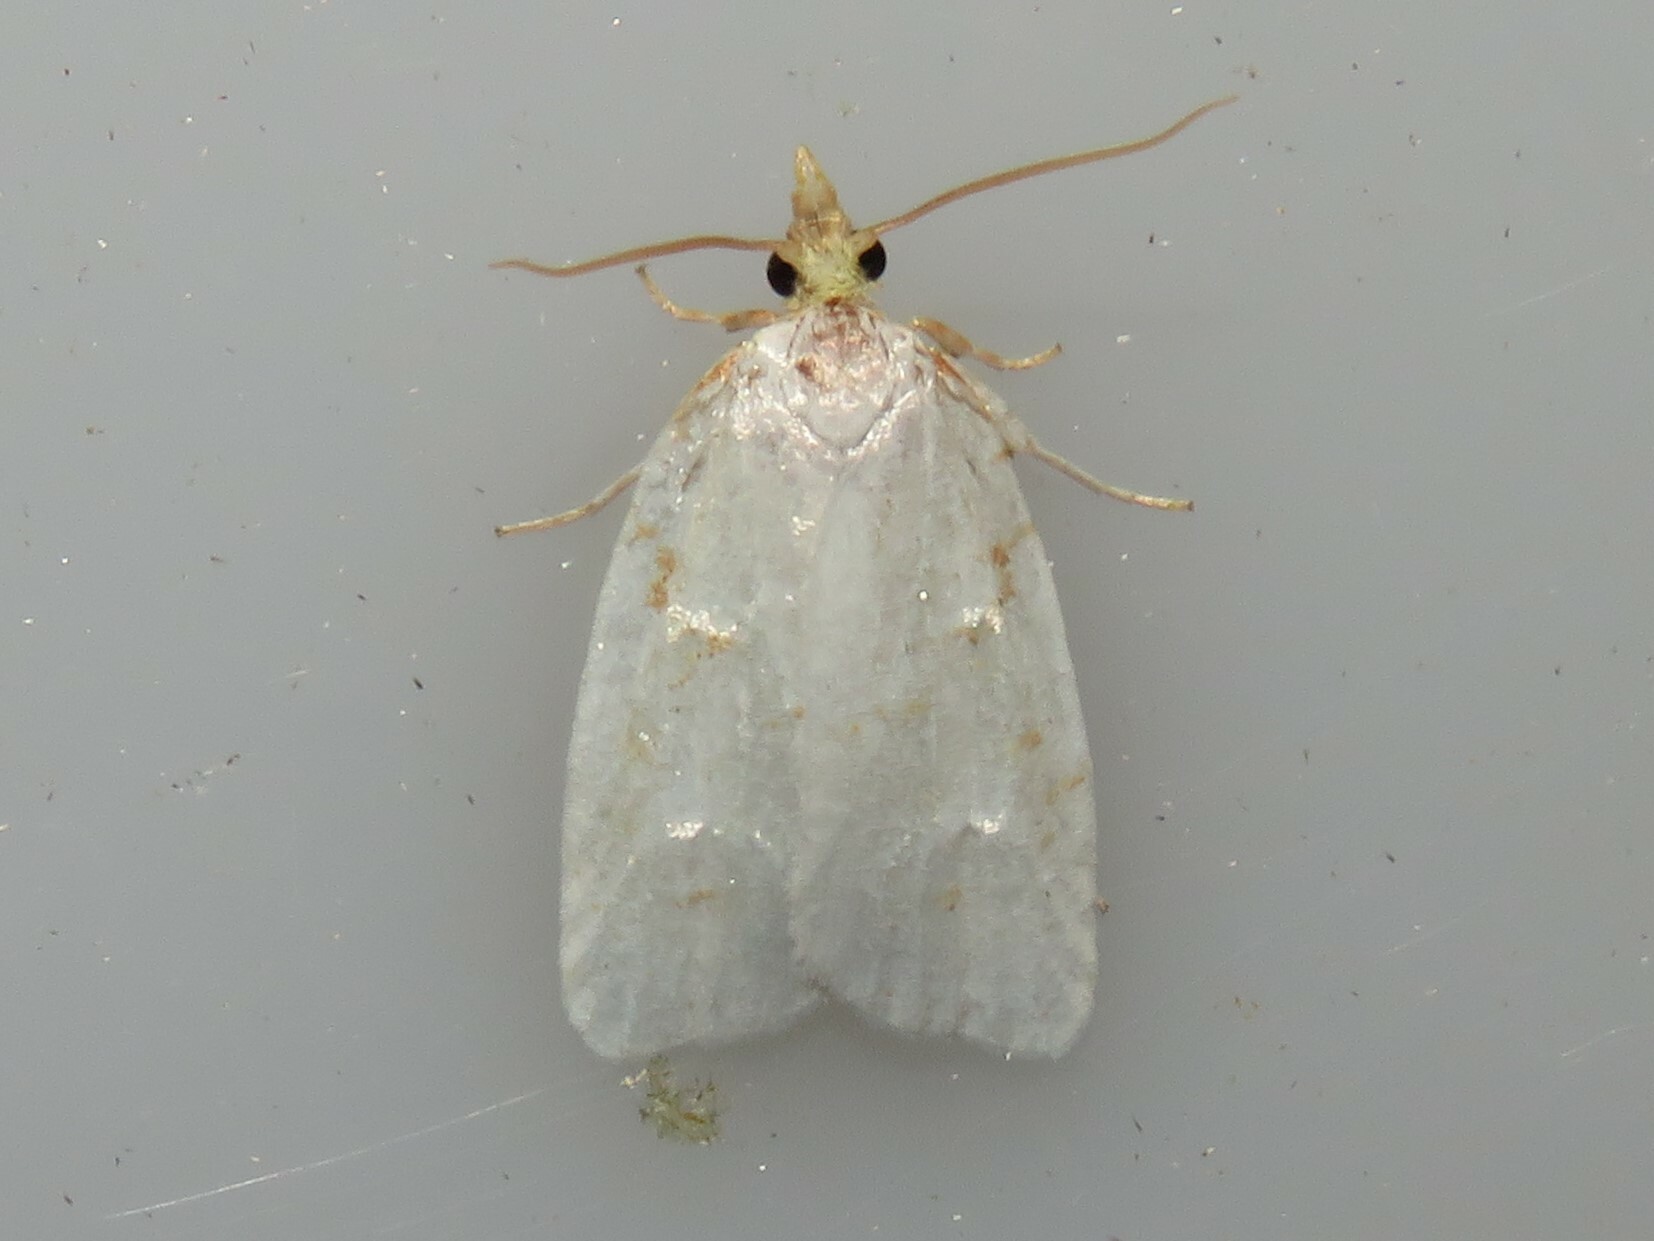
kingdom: Animalia
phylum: Arthropoda
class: Insecta
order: Lepidoptera
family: Tortricidae
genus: Cenopis
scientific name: Cenopis pettitana
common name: Maple-basswood leafroller moth
